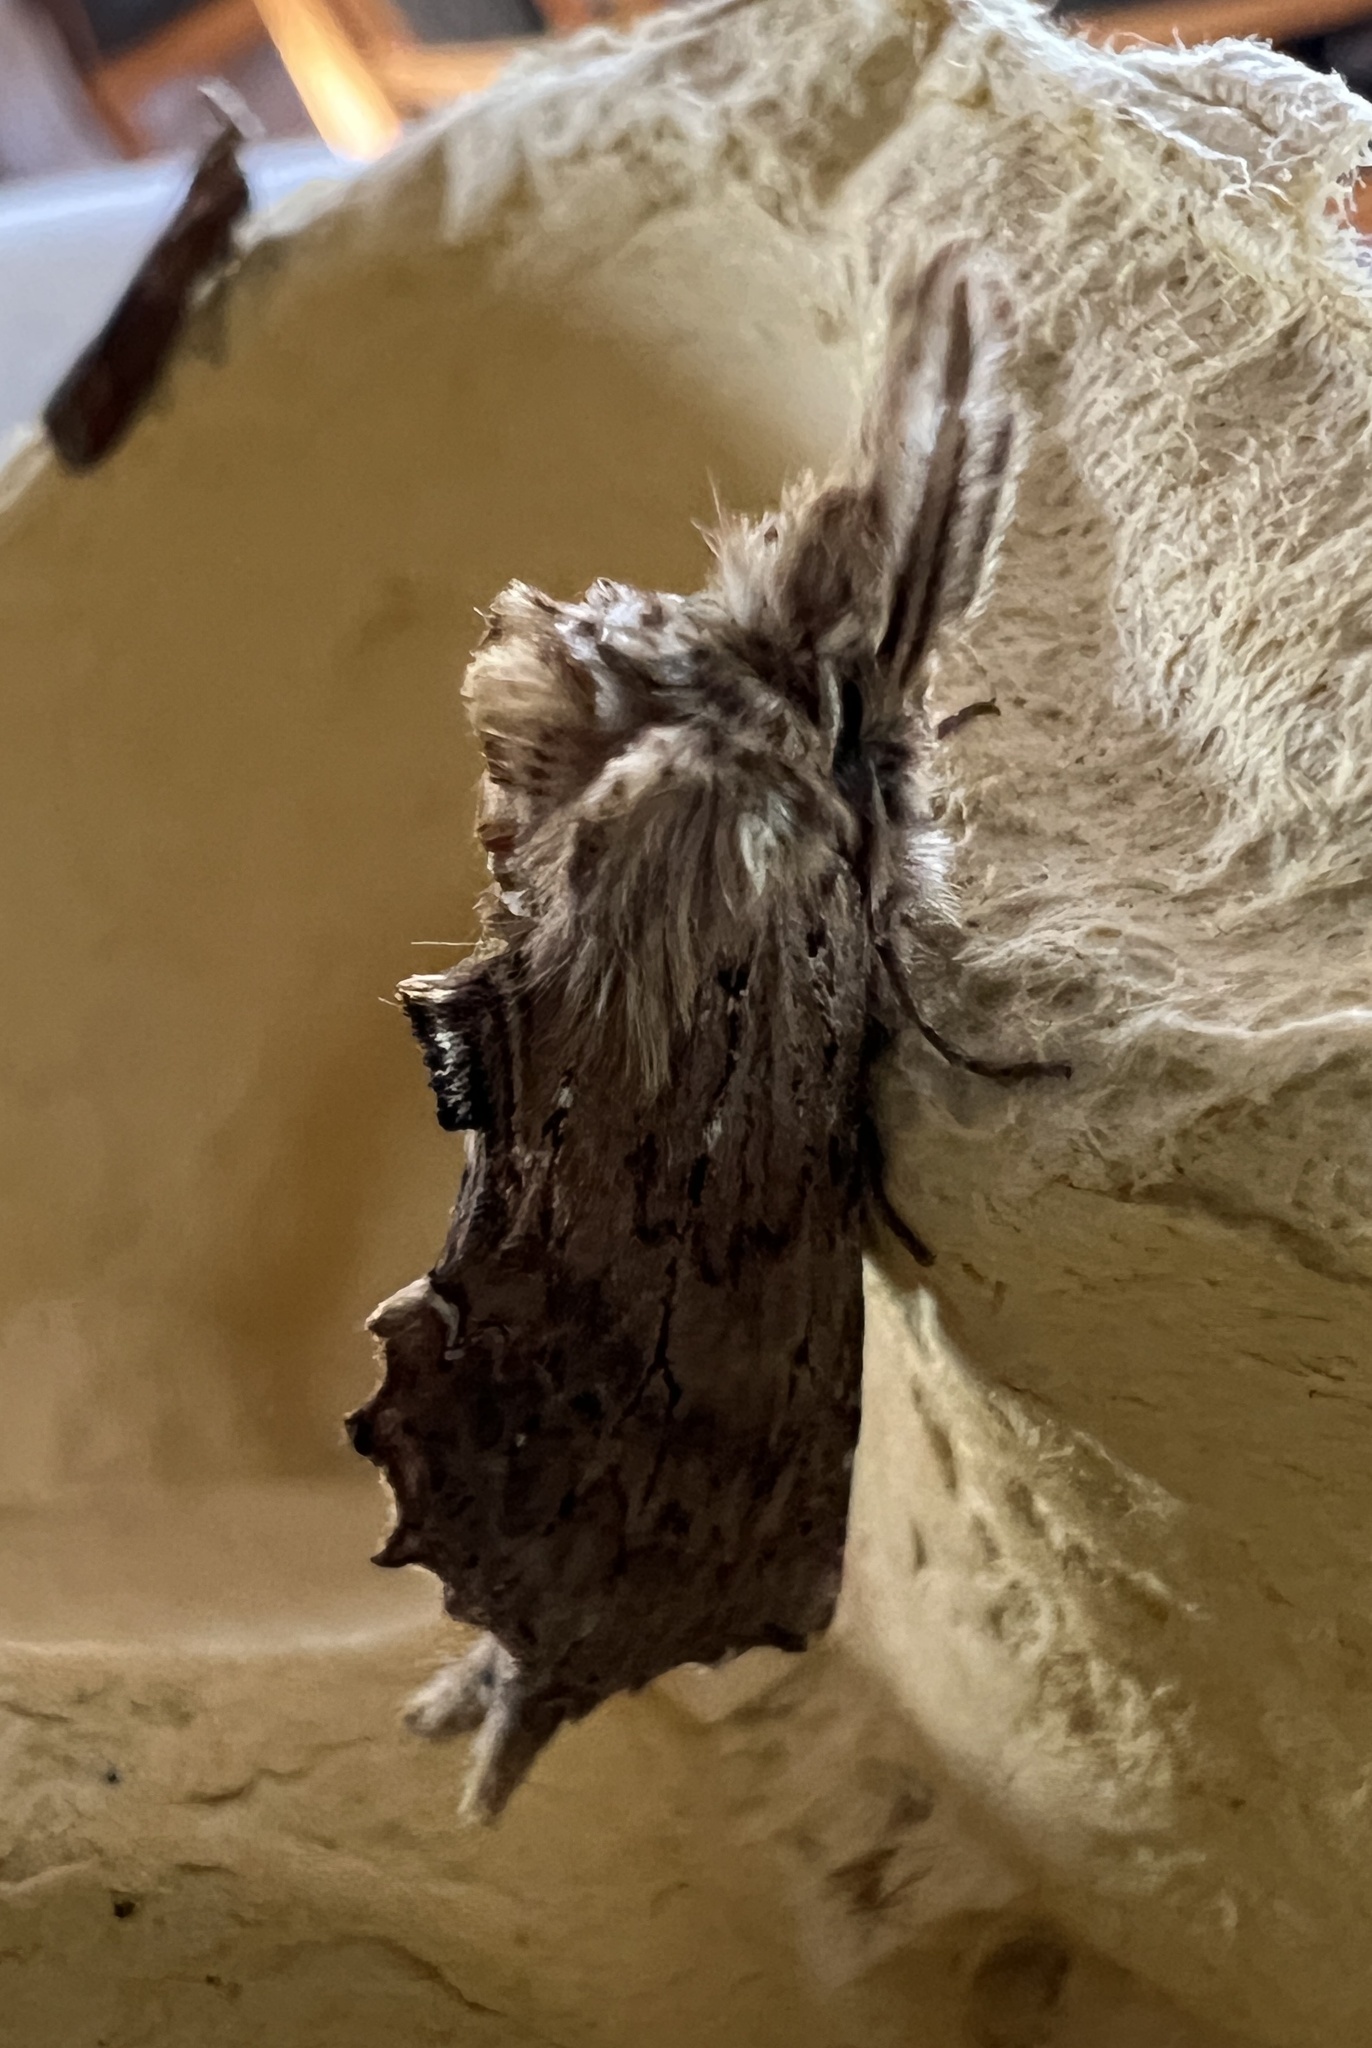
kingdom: Animalia
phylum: Arthropoda
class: Insecta
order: Lepidoptera
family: Notodontidae
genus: Pterostoma
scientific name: Pterostoma palpina
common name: Pale prominent
